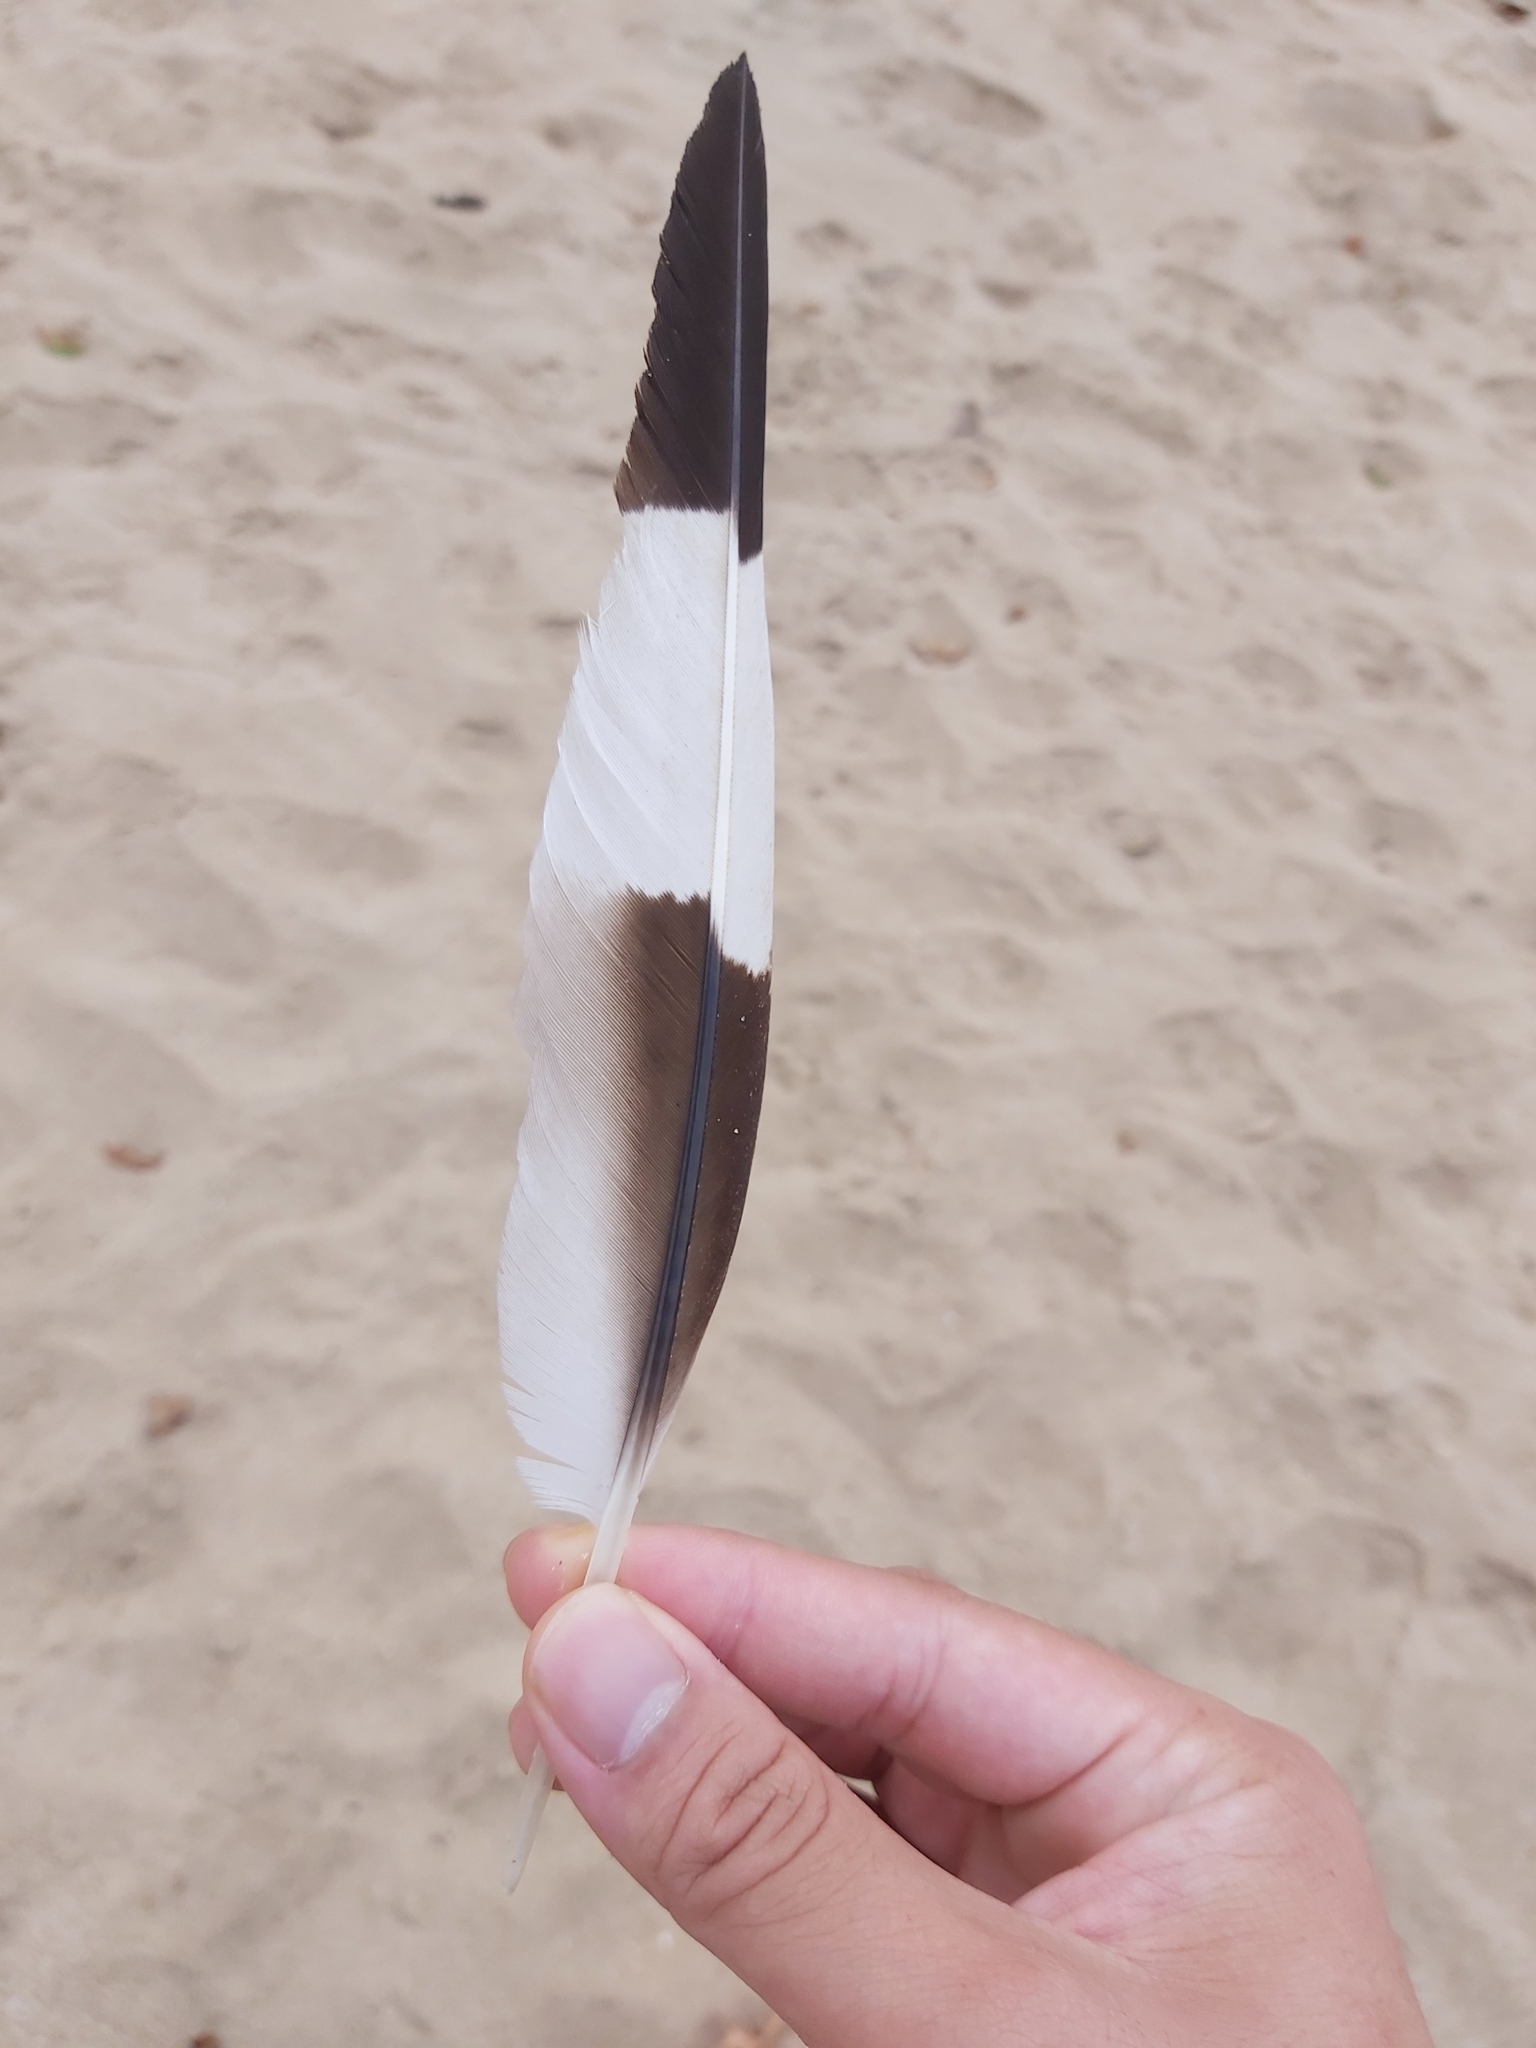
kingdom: Animalia
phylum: Chordata
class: Aves
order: Charadriiformes
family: Burhinidae
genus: Burhinus
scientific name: Burhinus grallarius
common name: Bush stone-curlew
